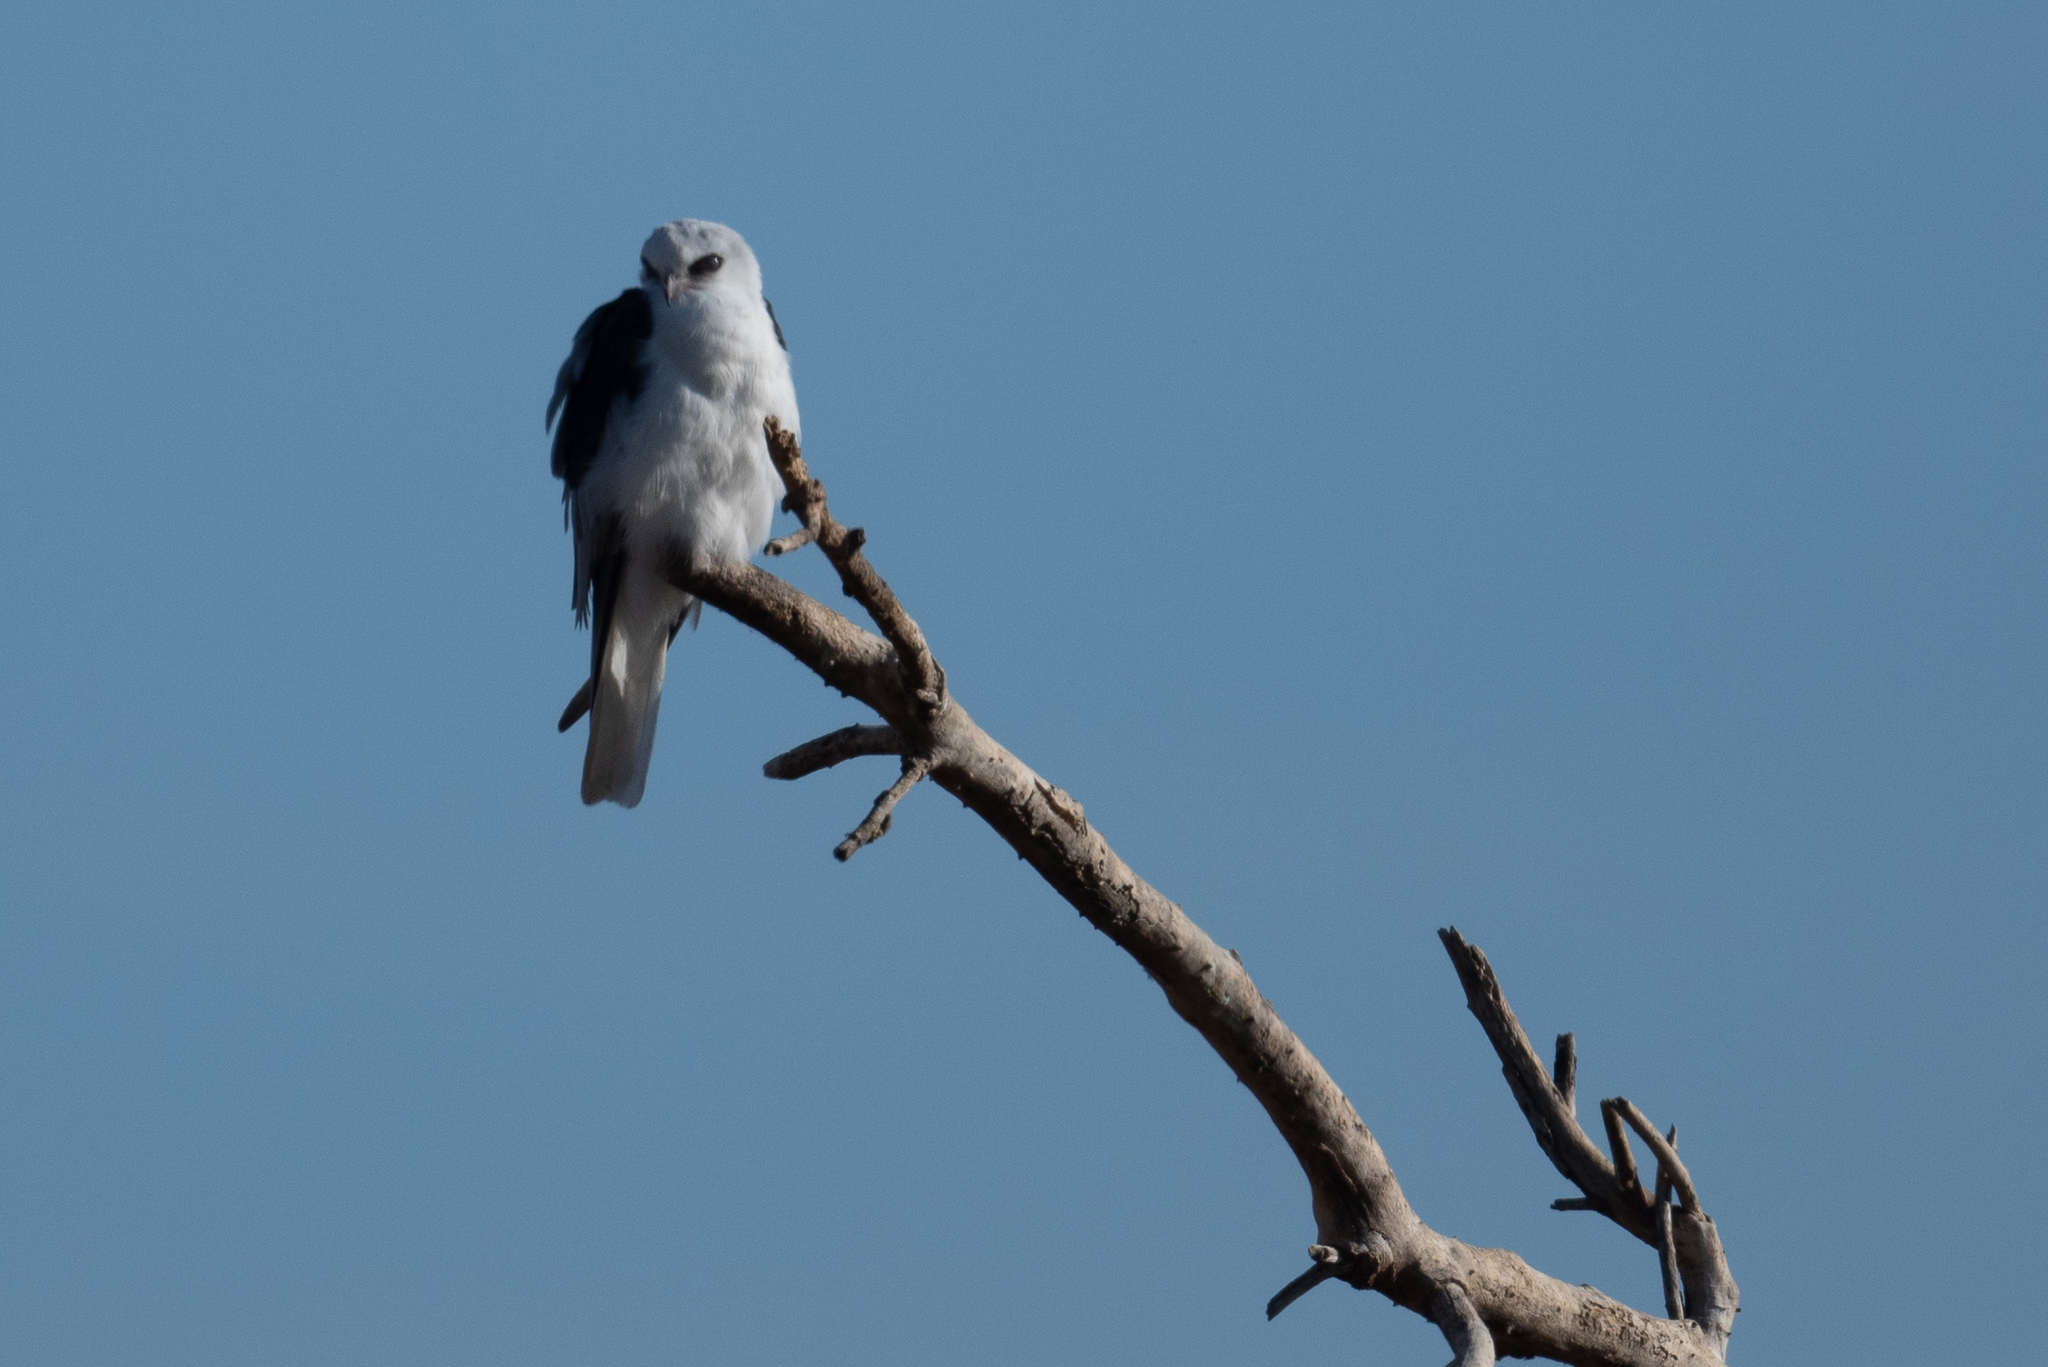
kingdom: Animalia
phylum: Chordata
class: Aves
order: Accipitriformes
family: Accipitridae
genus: Elanus
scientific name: Elanus leucurus
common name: White-tailed kite
